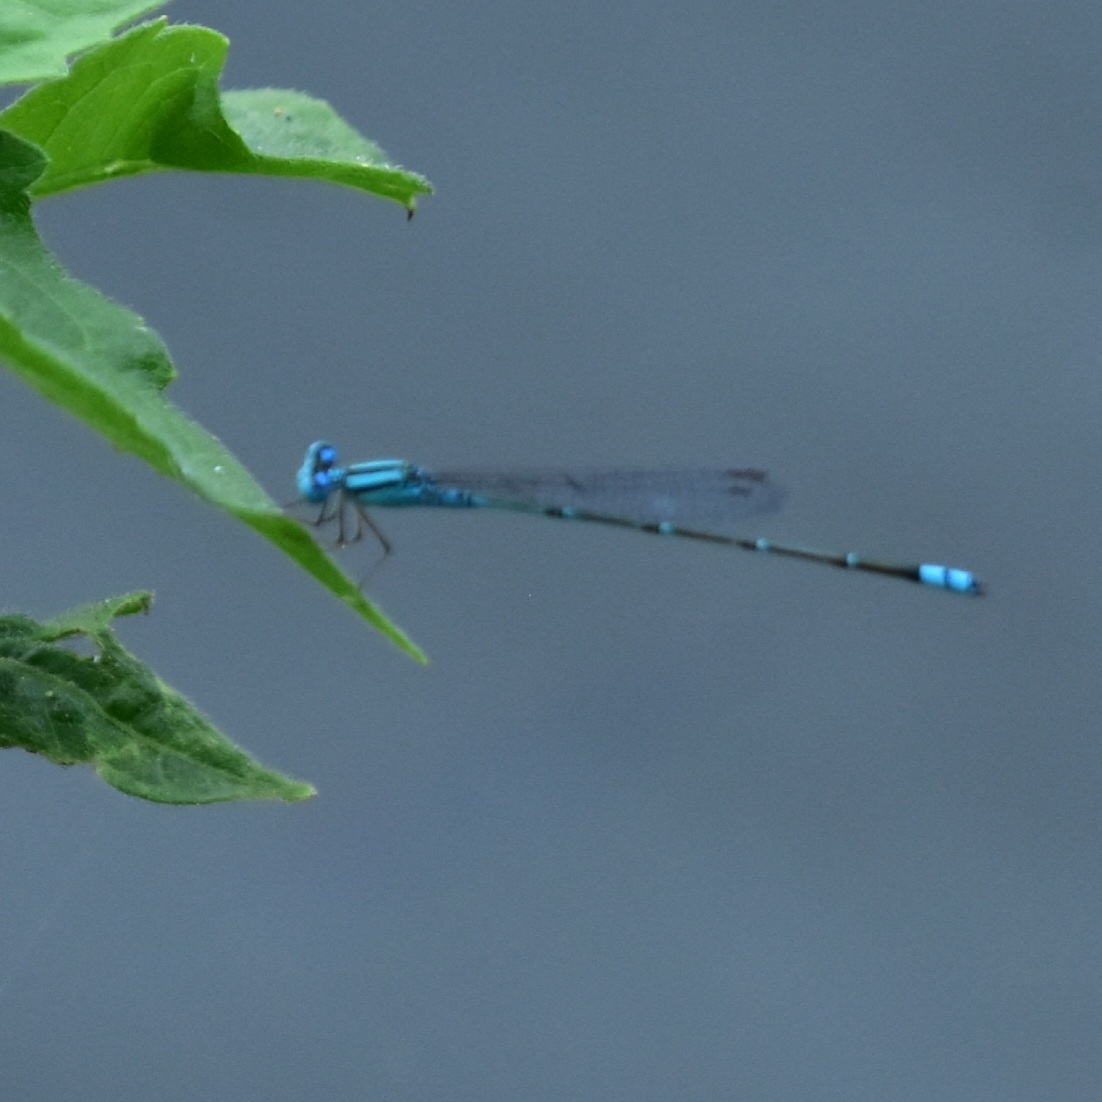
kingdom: Animalia
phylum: Arthropoda
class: Insecta
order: Odonata
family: Coenagrionidae
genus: Pseudagrion
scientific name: Pseudagrion microcephalum
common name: Blue riverdamsel
